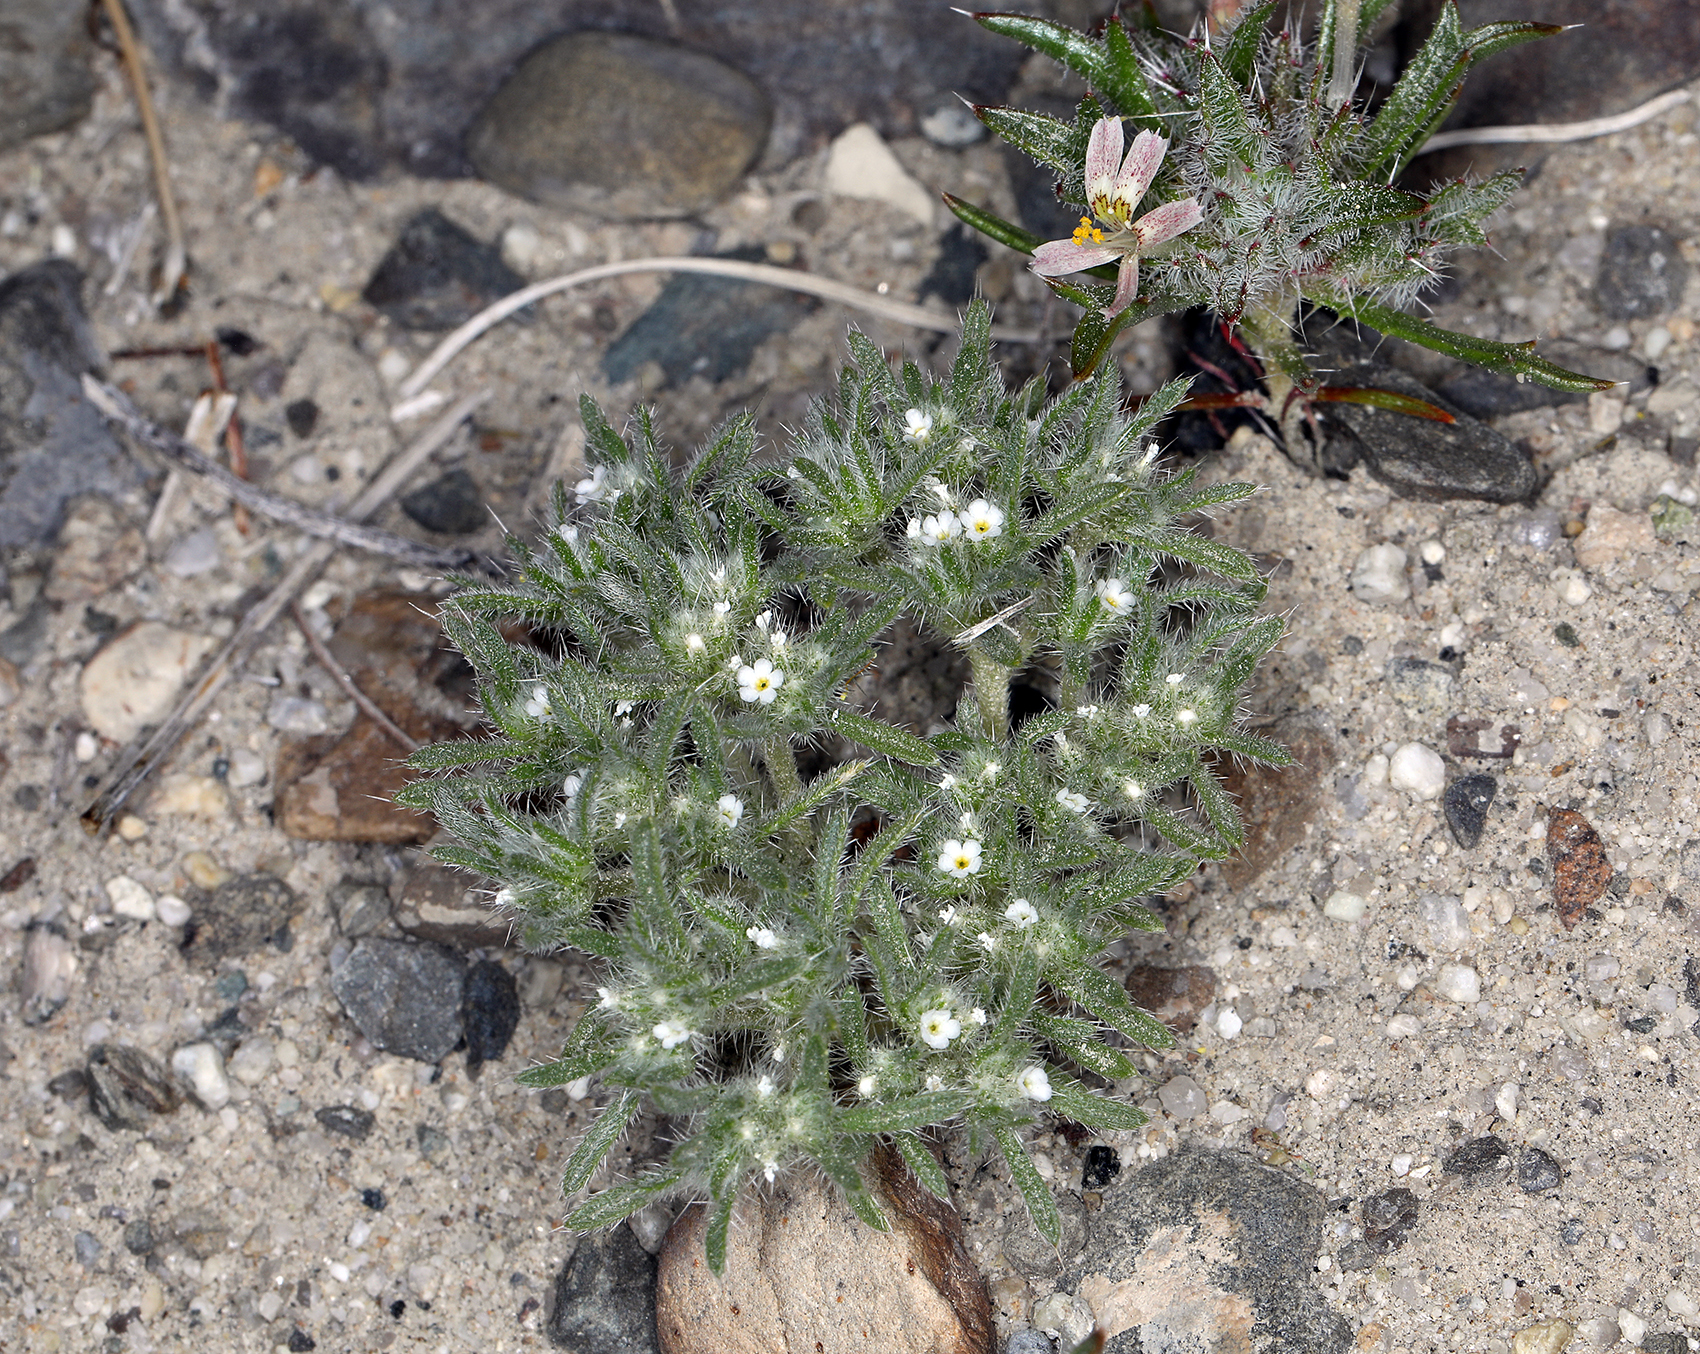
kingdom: Plantae
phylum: Tracheophyta
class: Magnoliopsida
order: Boraginales
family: Boraginaceae
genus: Greeneocharis
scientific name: Greeneocharis circumscissa
